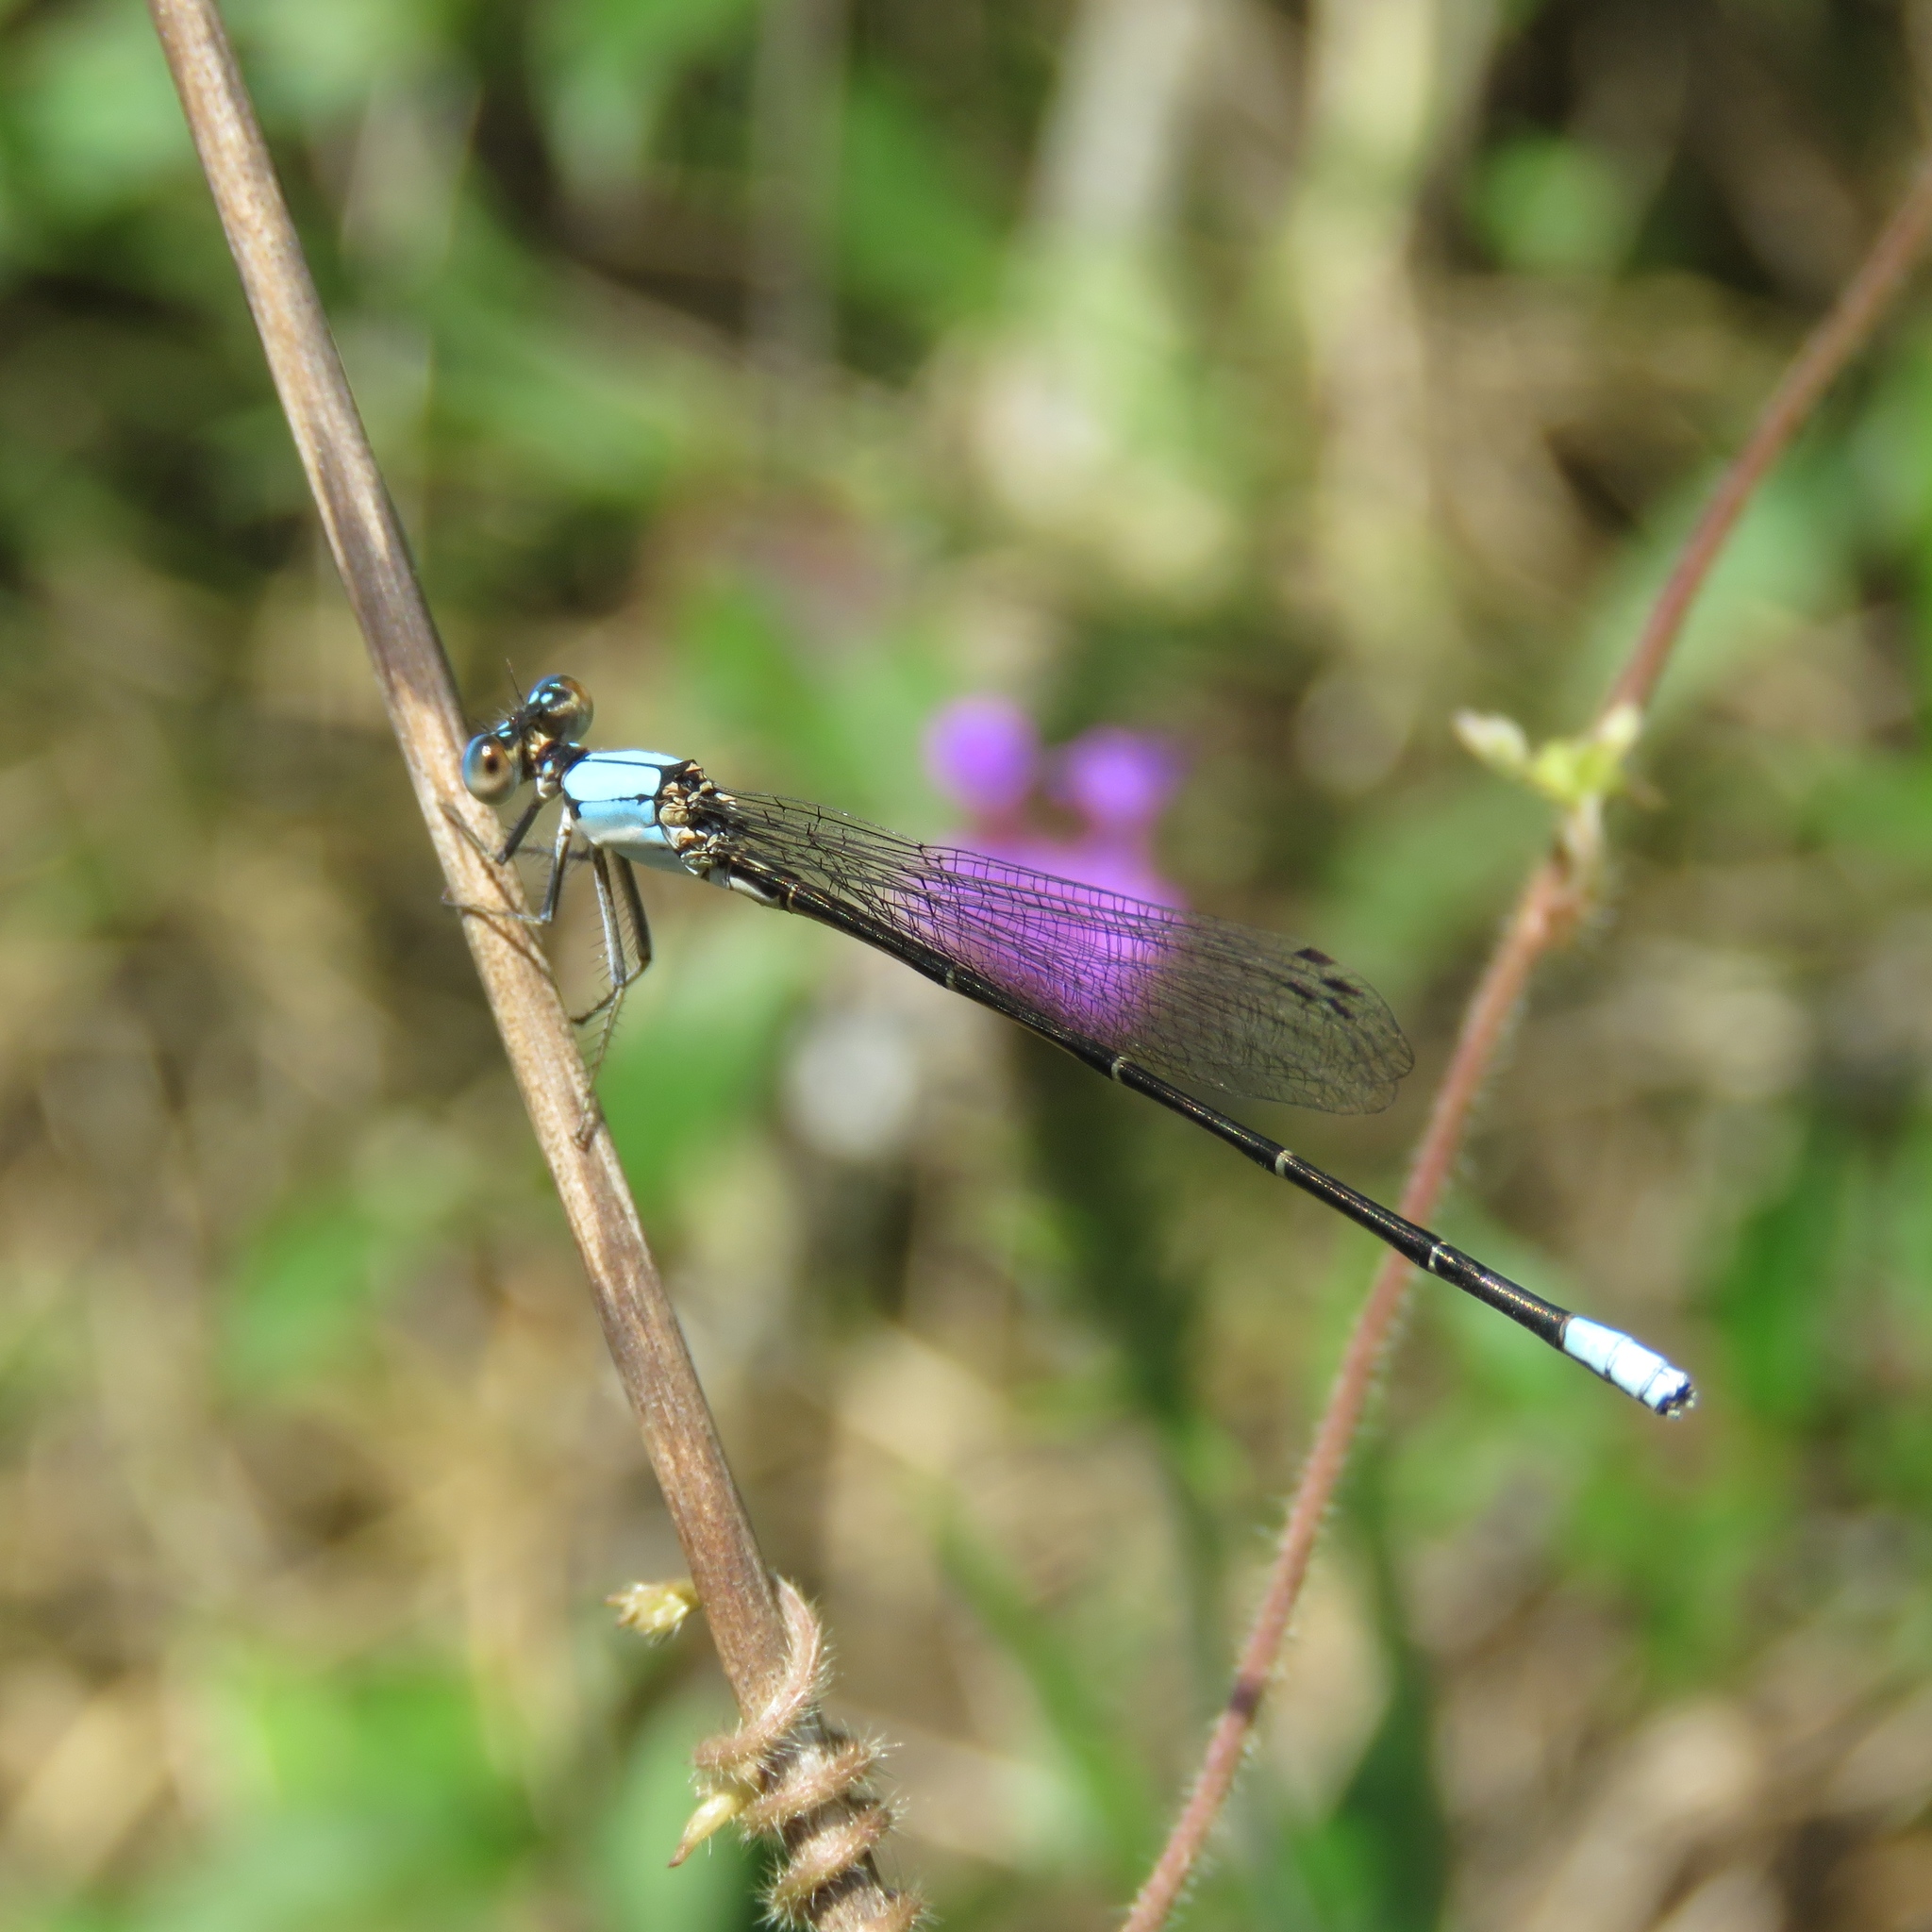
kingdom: Animalia
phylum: Arthropoda
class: Insecta
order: Odonata
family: Coenagrionidae
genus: Argia
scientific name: Argia apicalis
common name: Blue-fronted dancer
